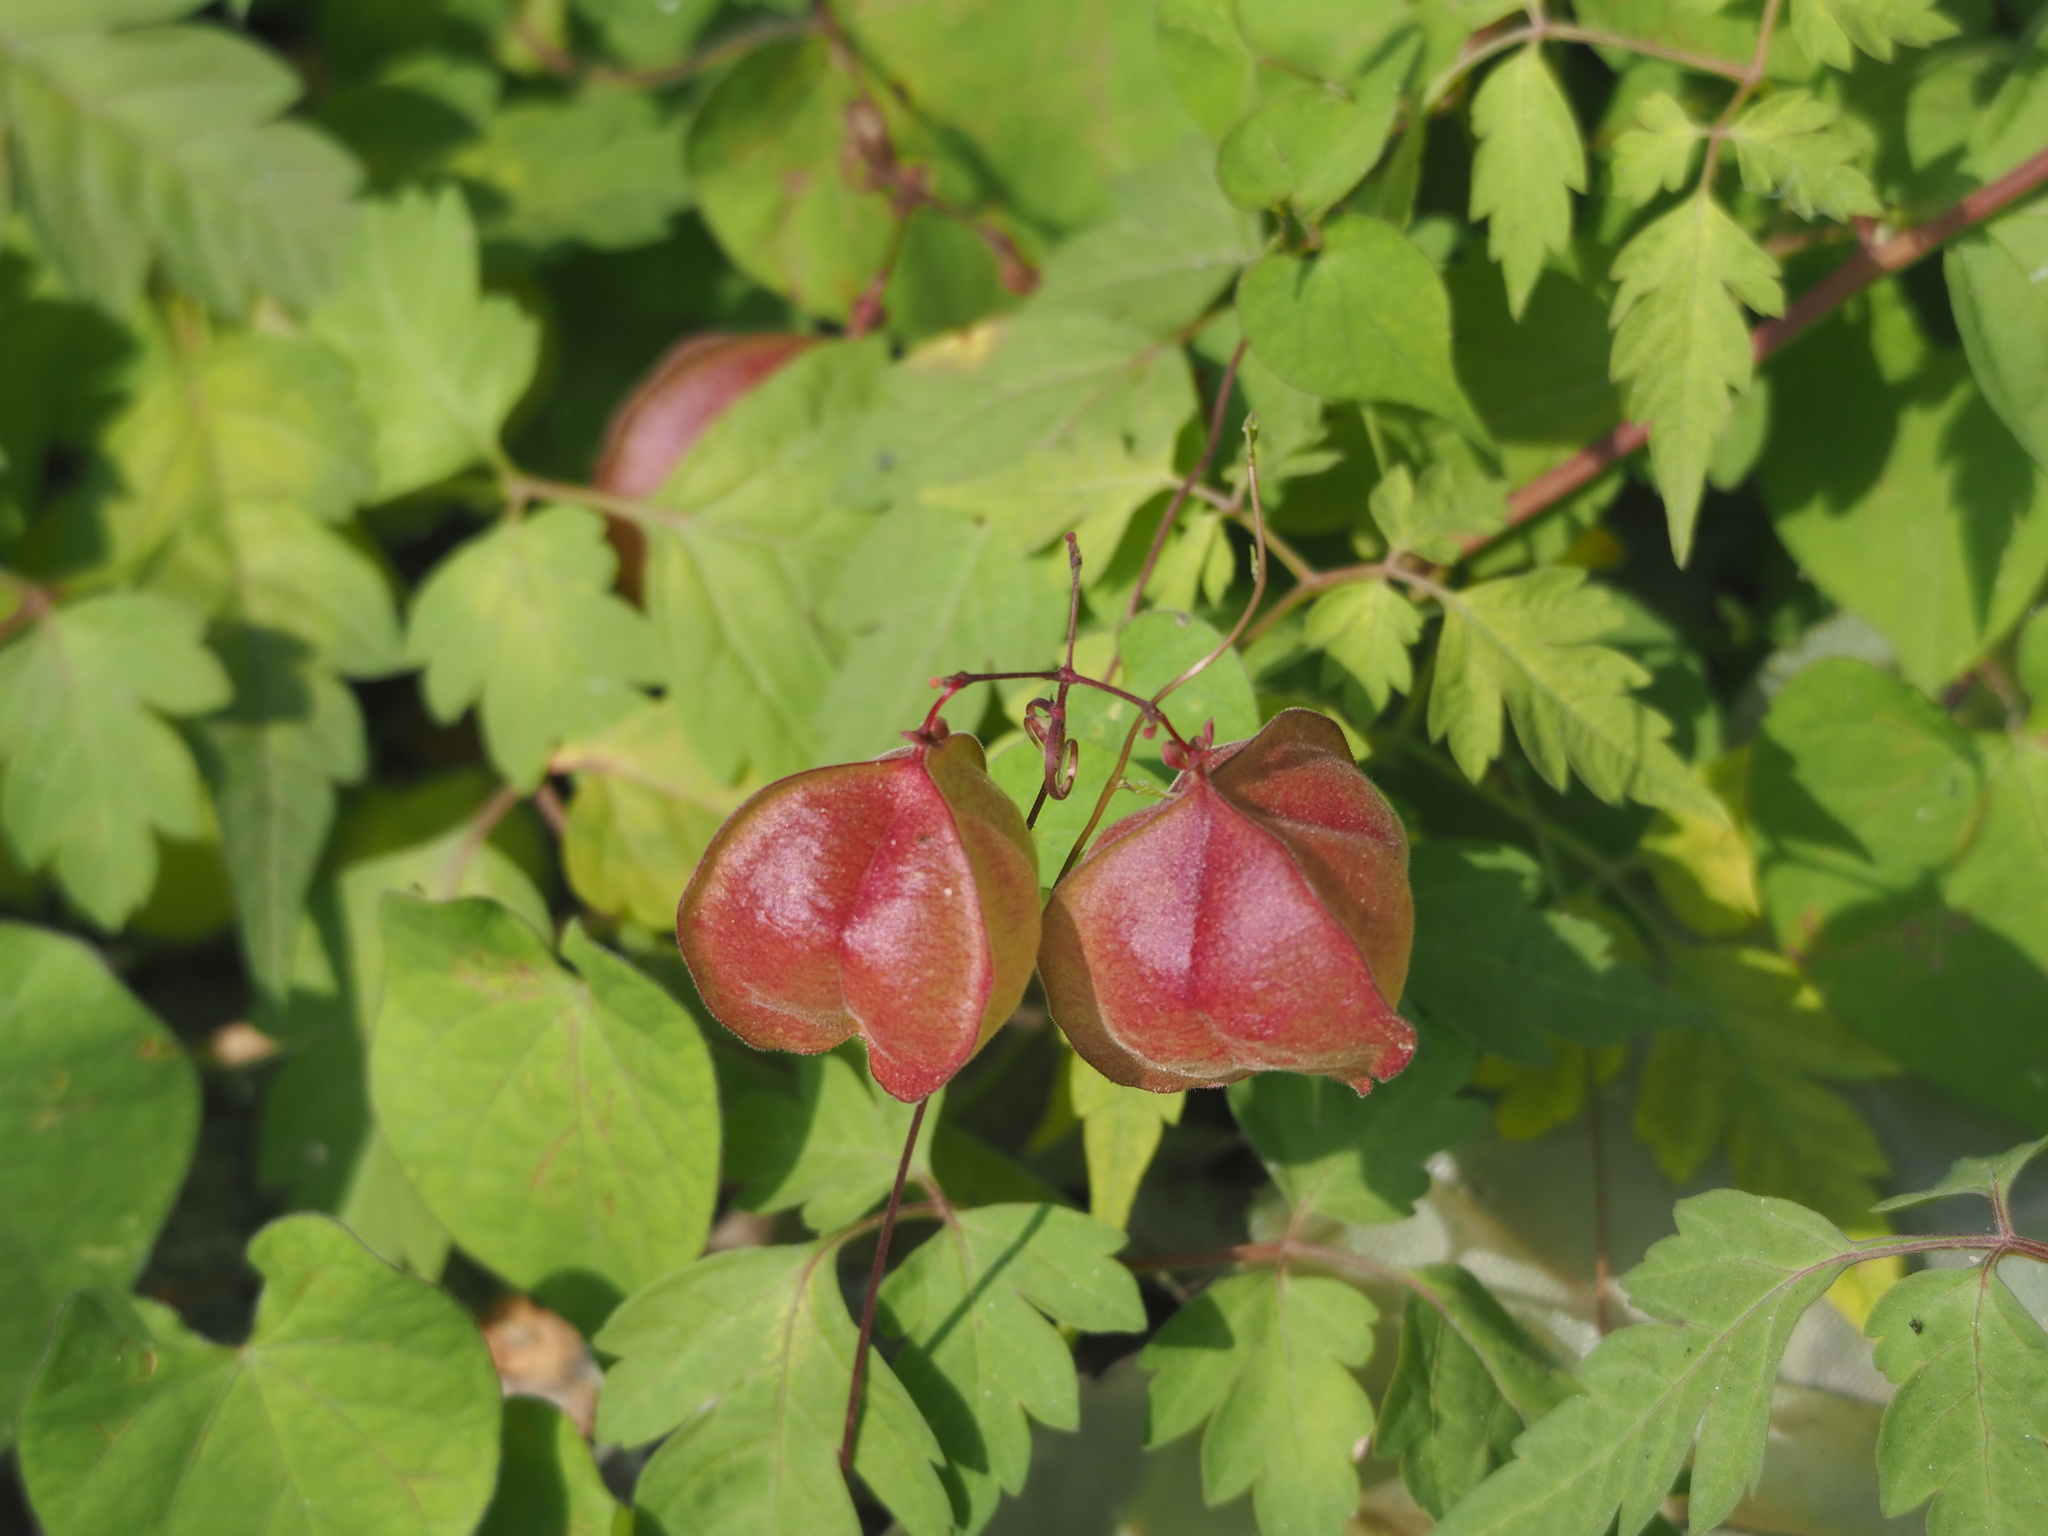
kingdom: Plantae
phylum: Tracheophyta
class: Magnoliopsida
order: Sapindales
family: Sapindaceae
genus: Cardiospermum
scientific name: Cardiospermum halicacabum
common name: Balloon vine
